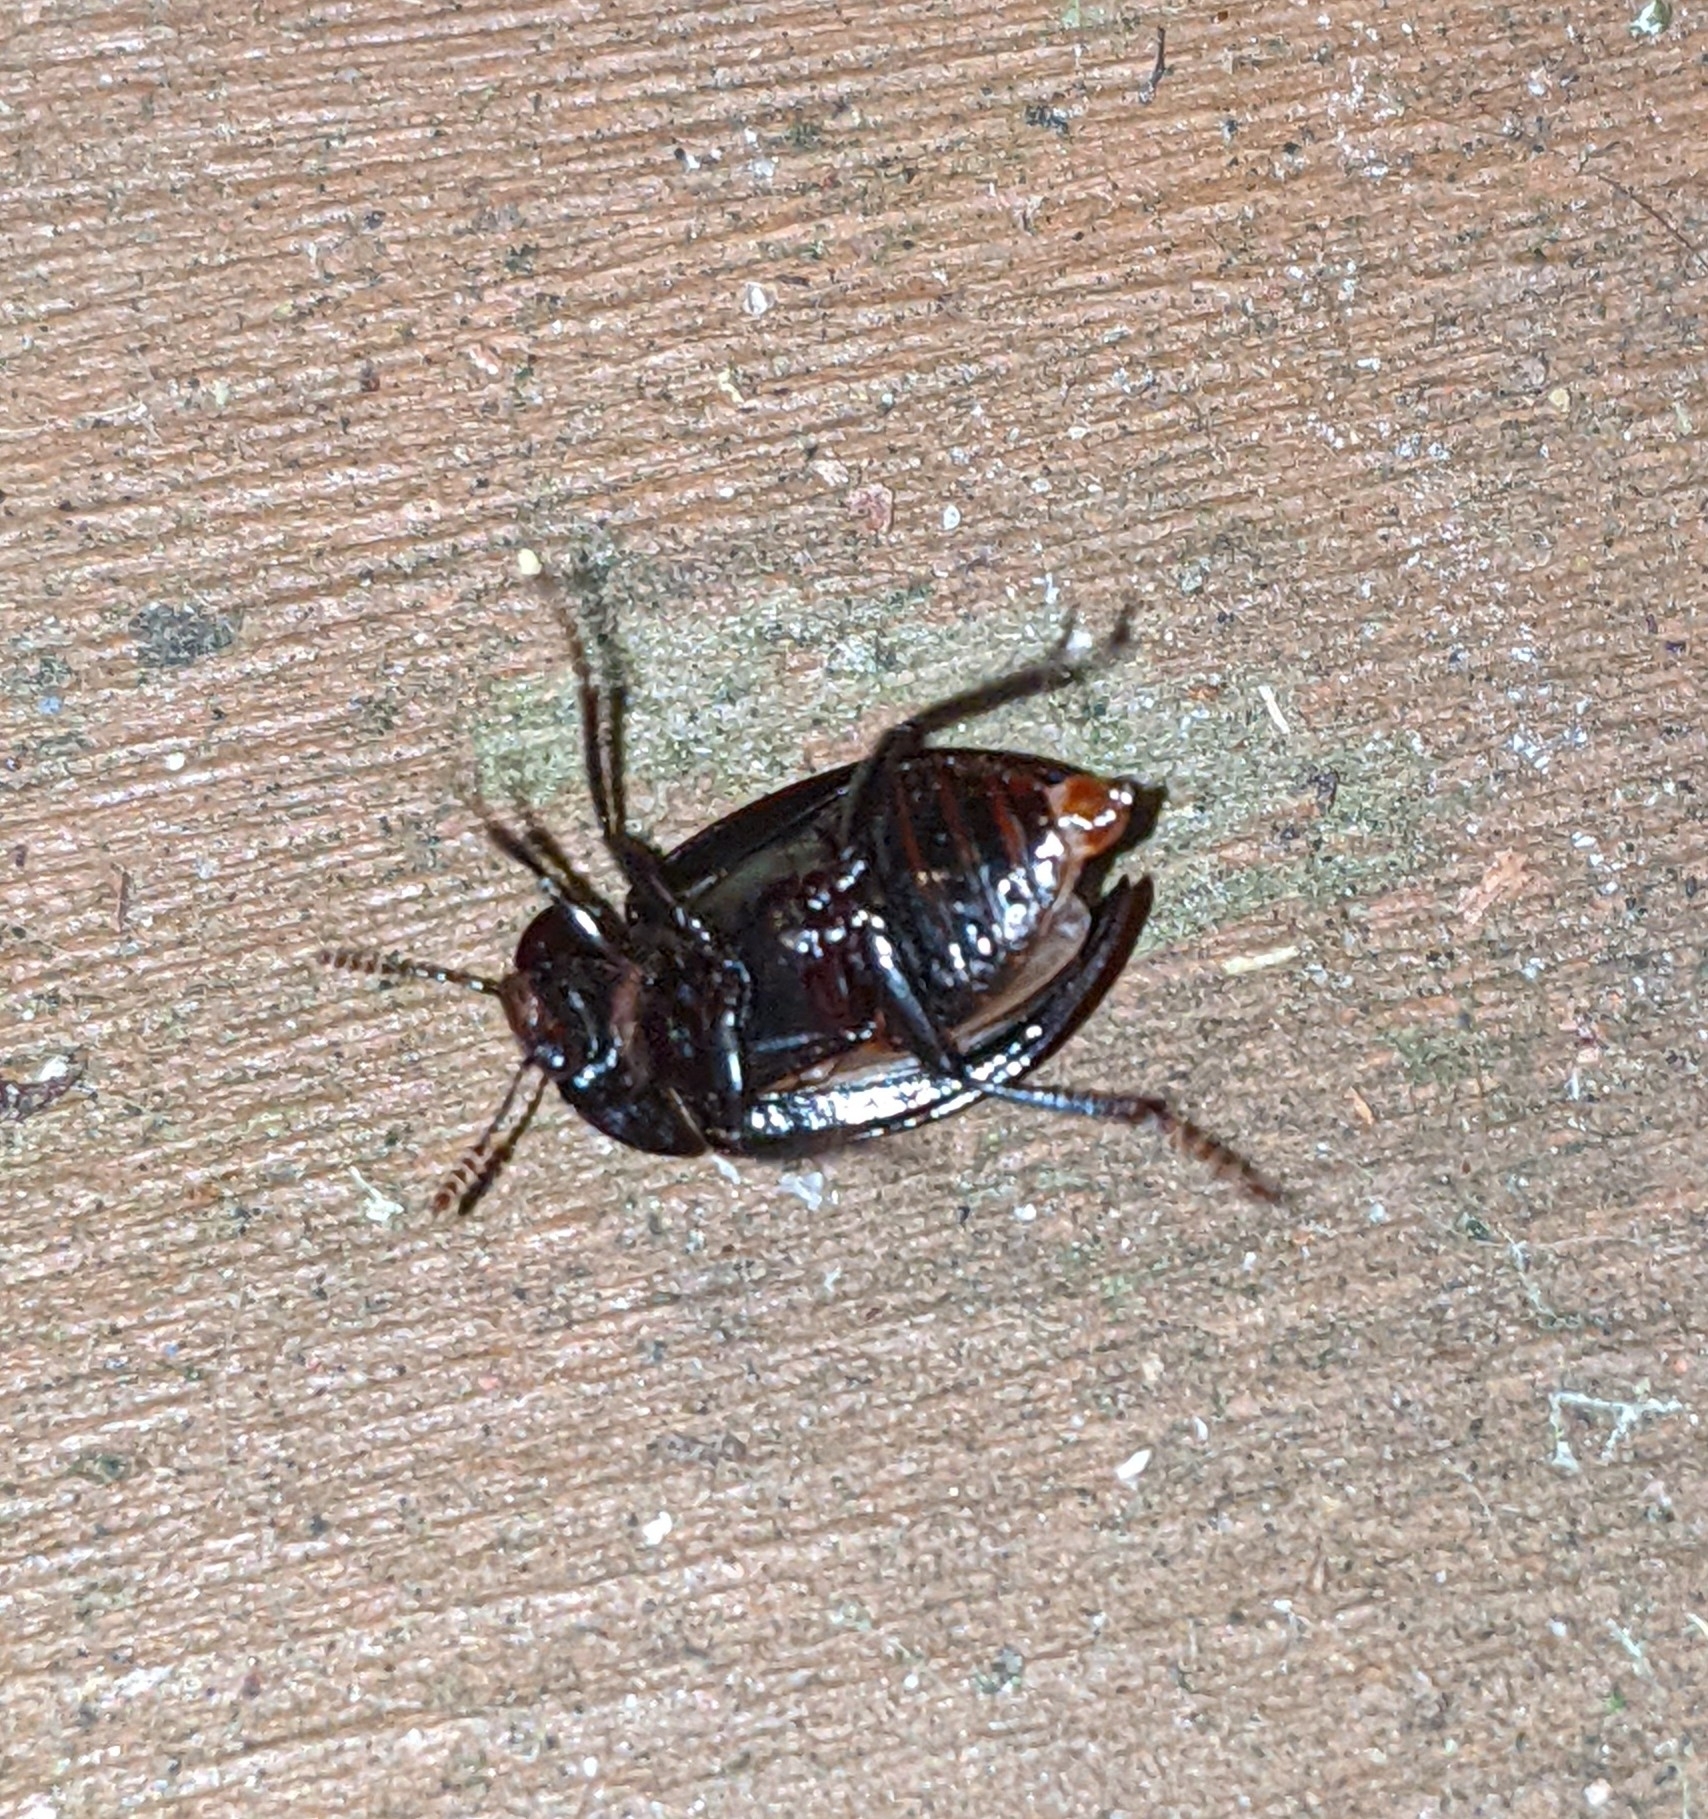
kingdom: Animalia
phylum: Arthropoda
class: Insecta
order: Coleoptera
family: Agyrtidae
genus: Necrophilus
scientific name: Necrophilus hydrophiloides
